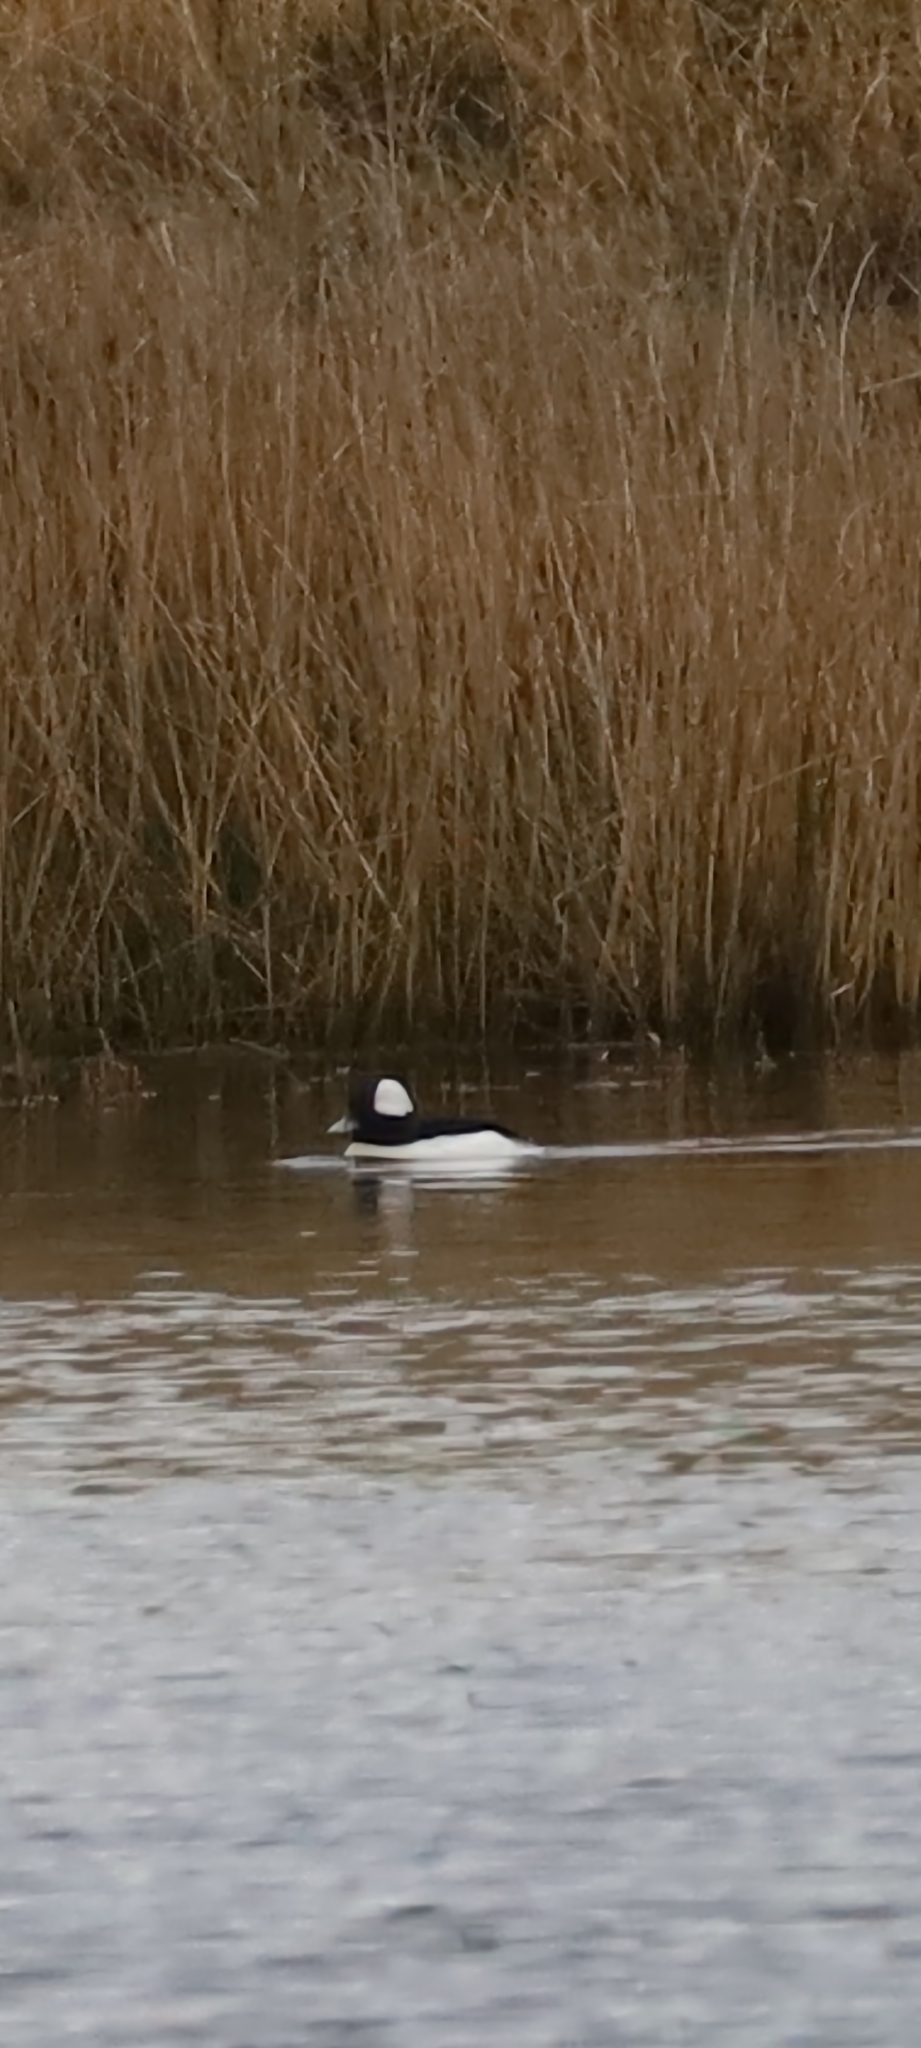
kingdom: Animalia
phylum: Chordata
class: Aves
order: Anseriformes
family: Anatidae
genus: Bucephala
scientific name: Bucephala albeola
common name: Bufflehead
